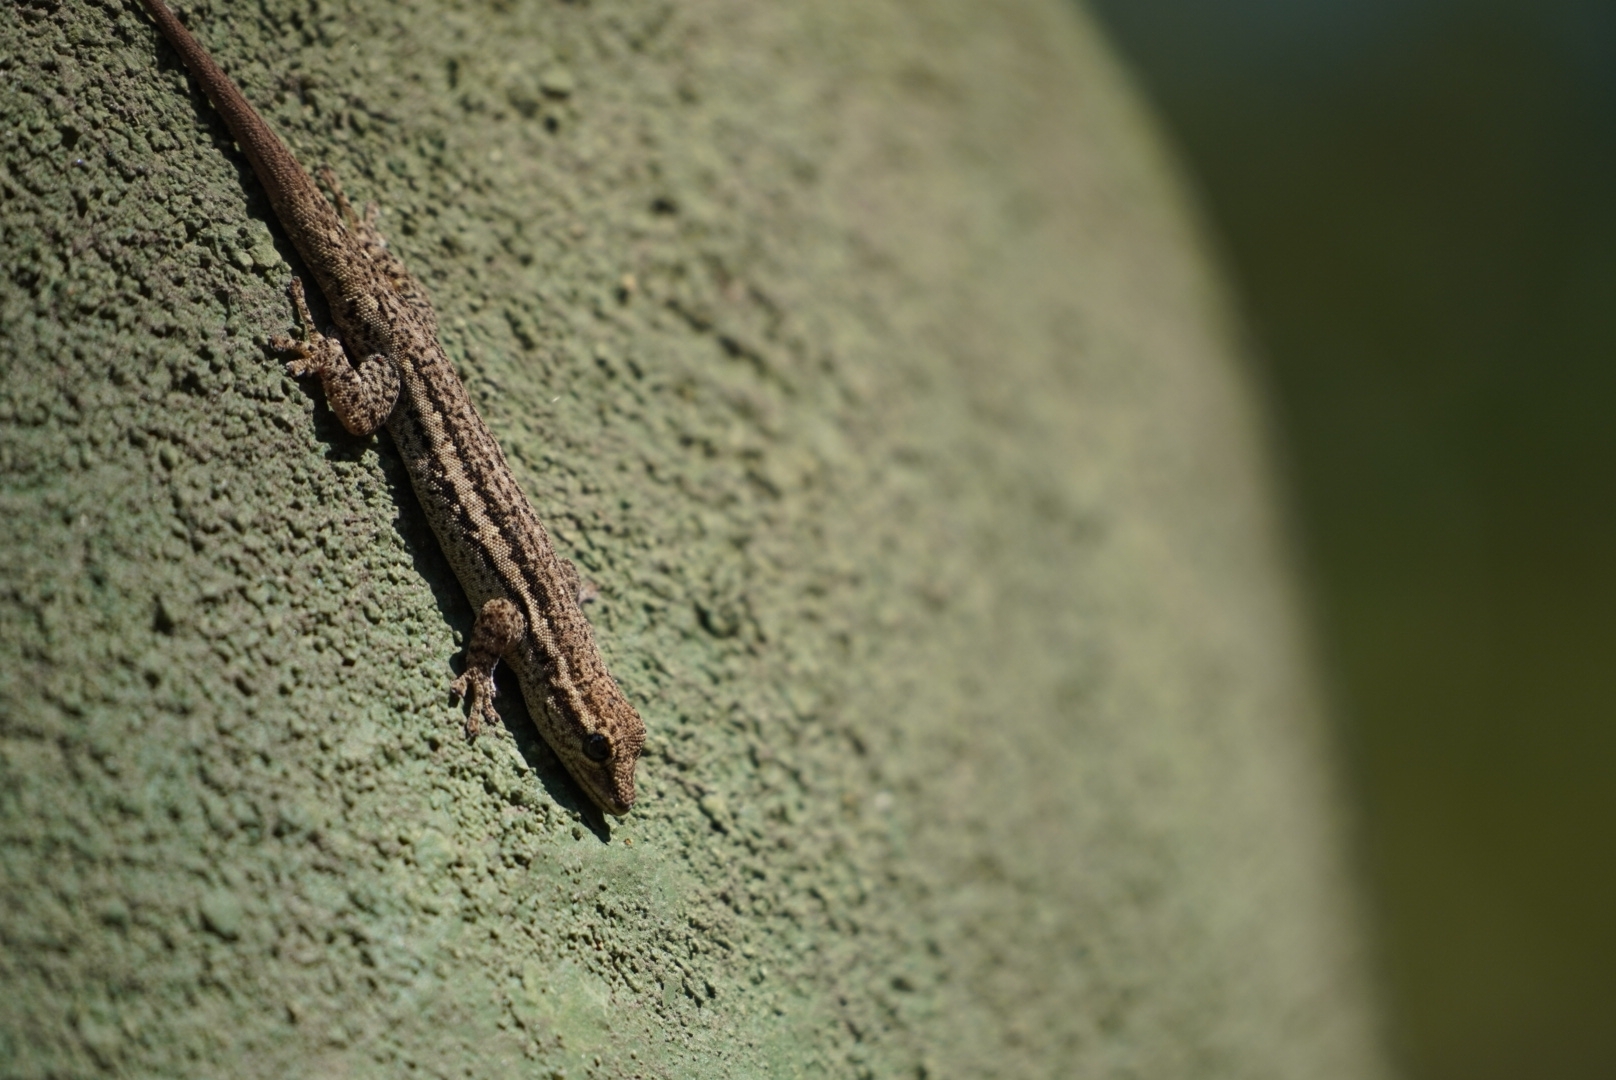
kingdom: Animalia
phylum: Chordata
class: Squamata
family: Gekkonidae
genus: Lygodactylus
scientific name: Lygodactylus capensis
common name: Cape dwarf gecko
